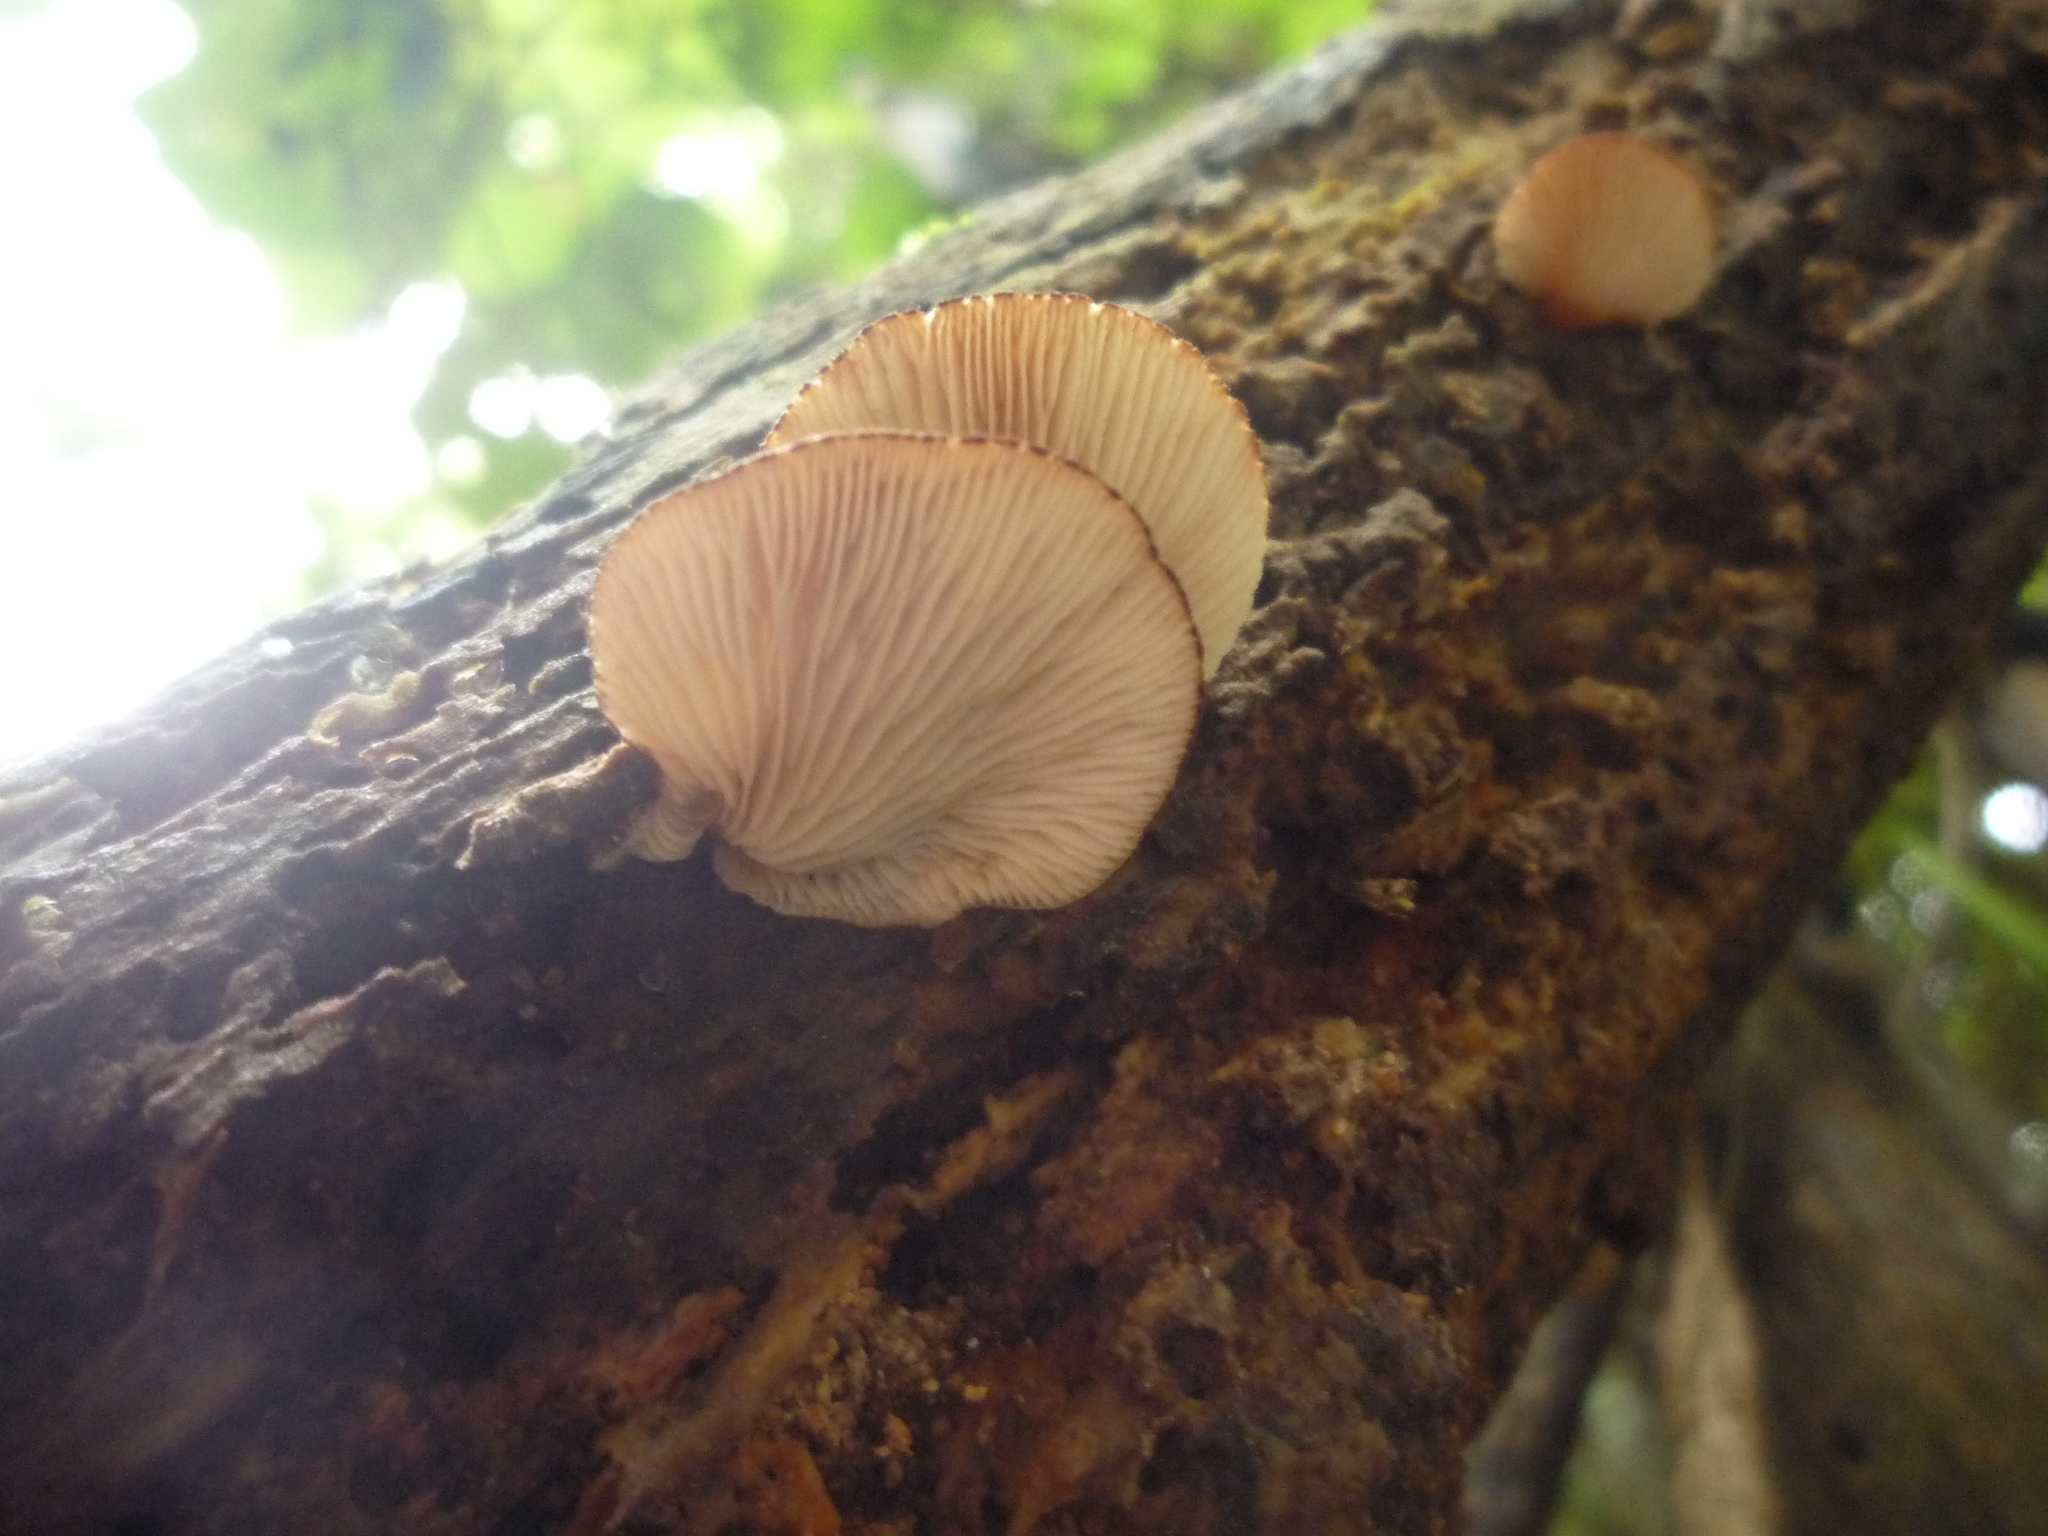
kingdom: Fungi
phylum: Basidiomycota
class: Agaricomycetes
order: Agaricales
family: Crepidotaceae
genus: Crepidotus
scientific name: Crepidotus fuscovelutinus
